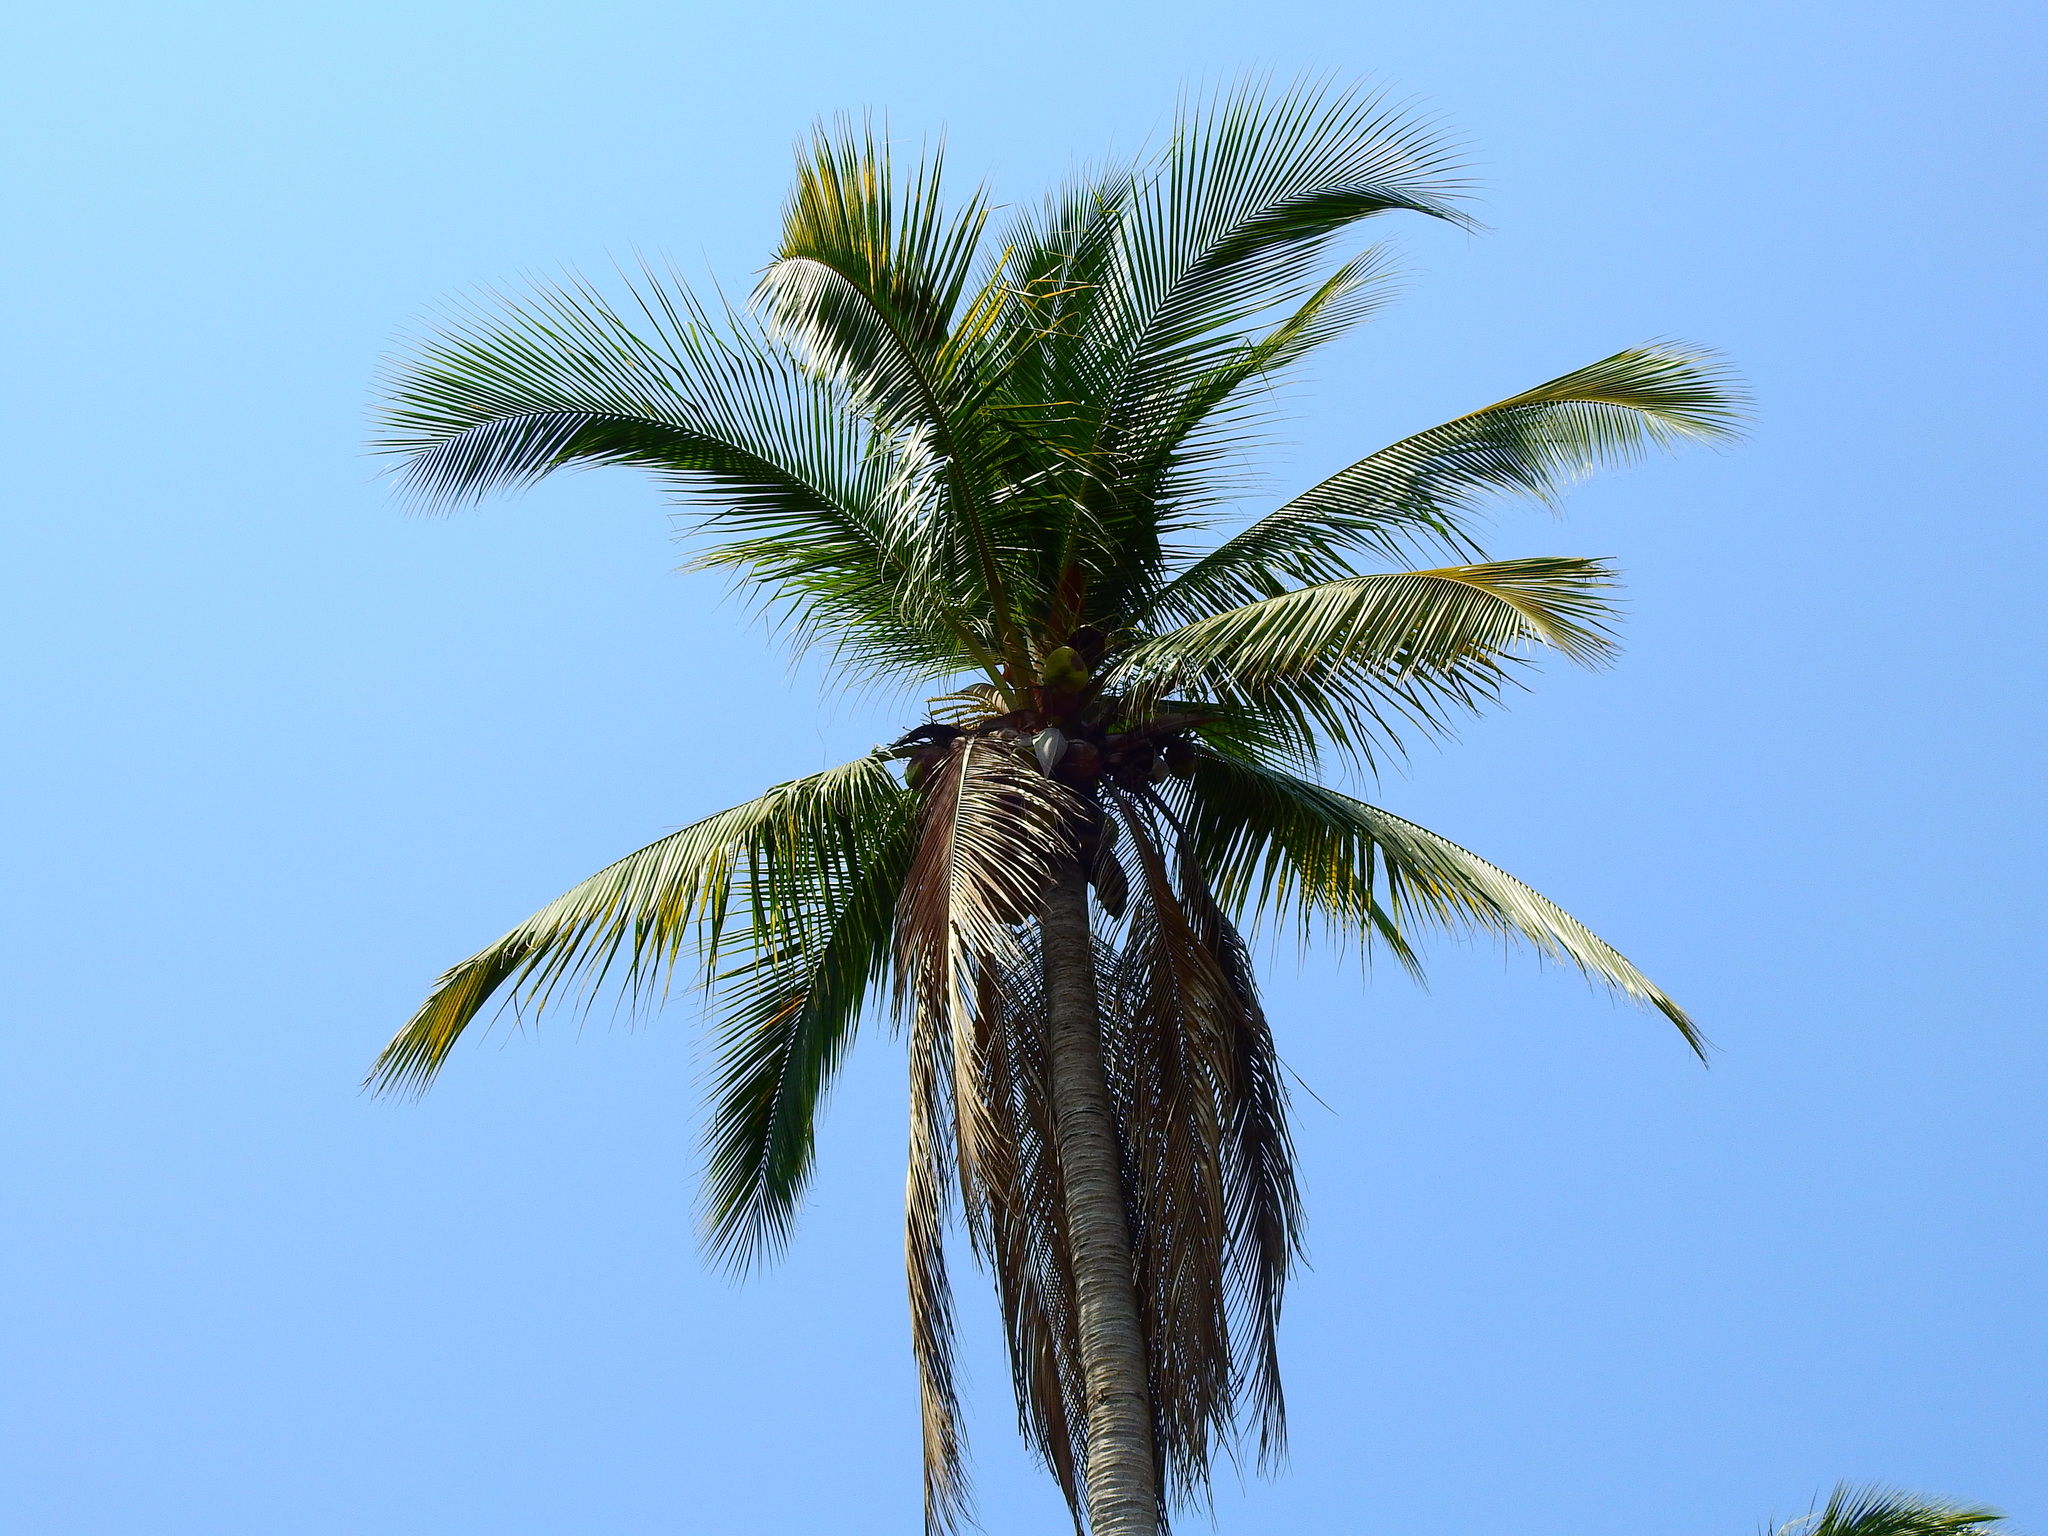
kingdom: Plantae
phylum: Tracheophyta
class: Liliopsida
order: Arecales
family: Arecaceae
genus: Cocos
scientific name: Cocos nucifera
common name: Coconut palm
